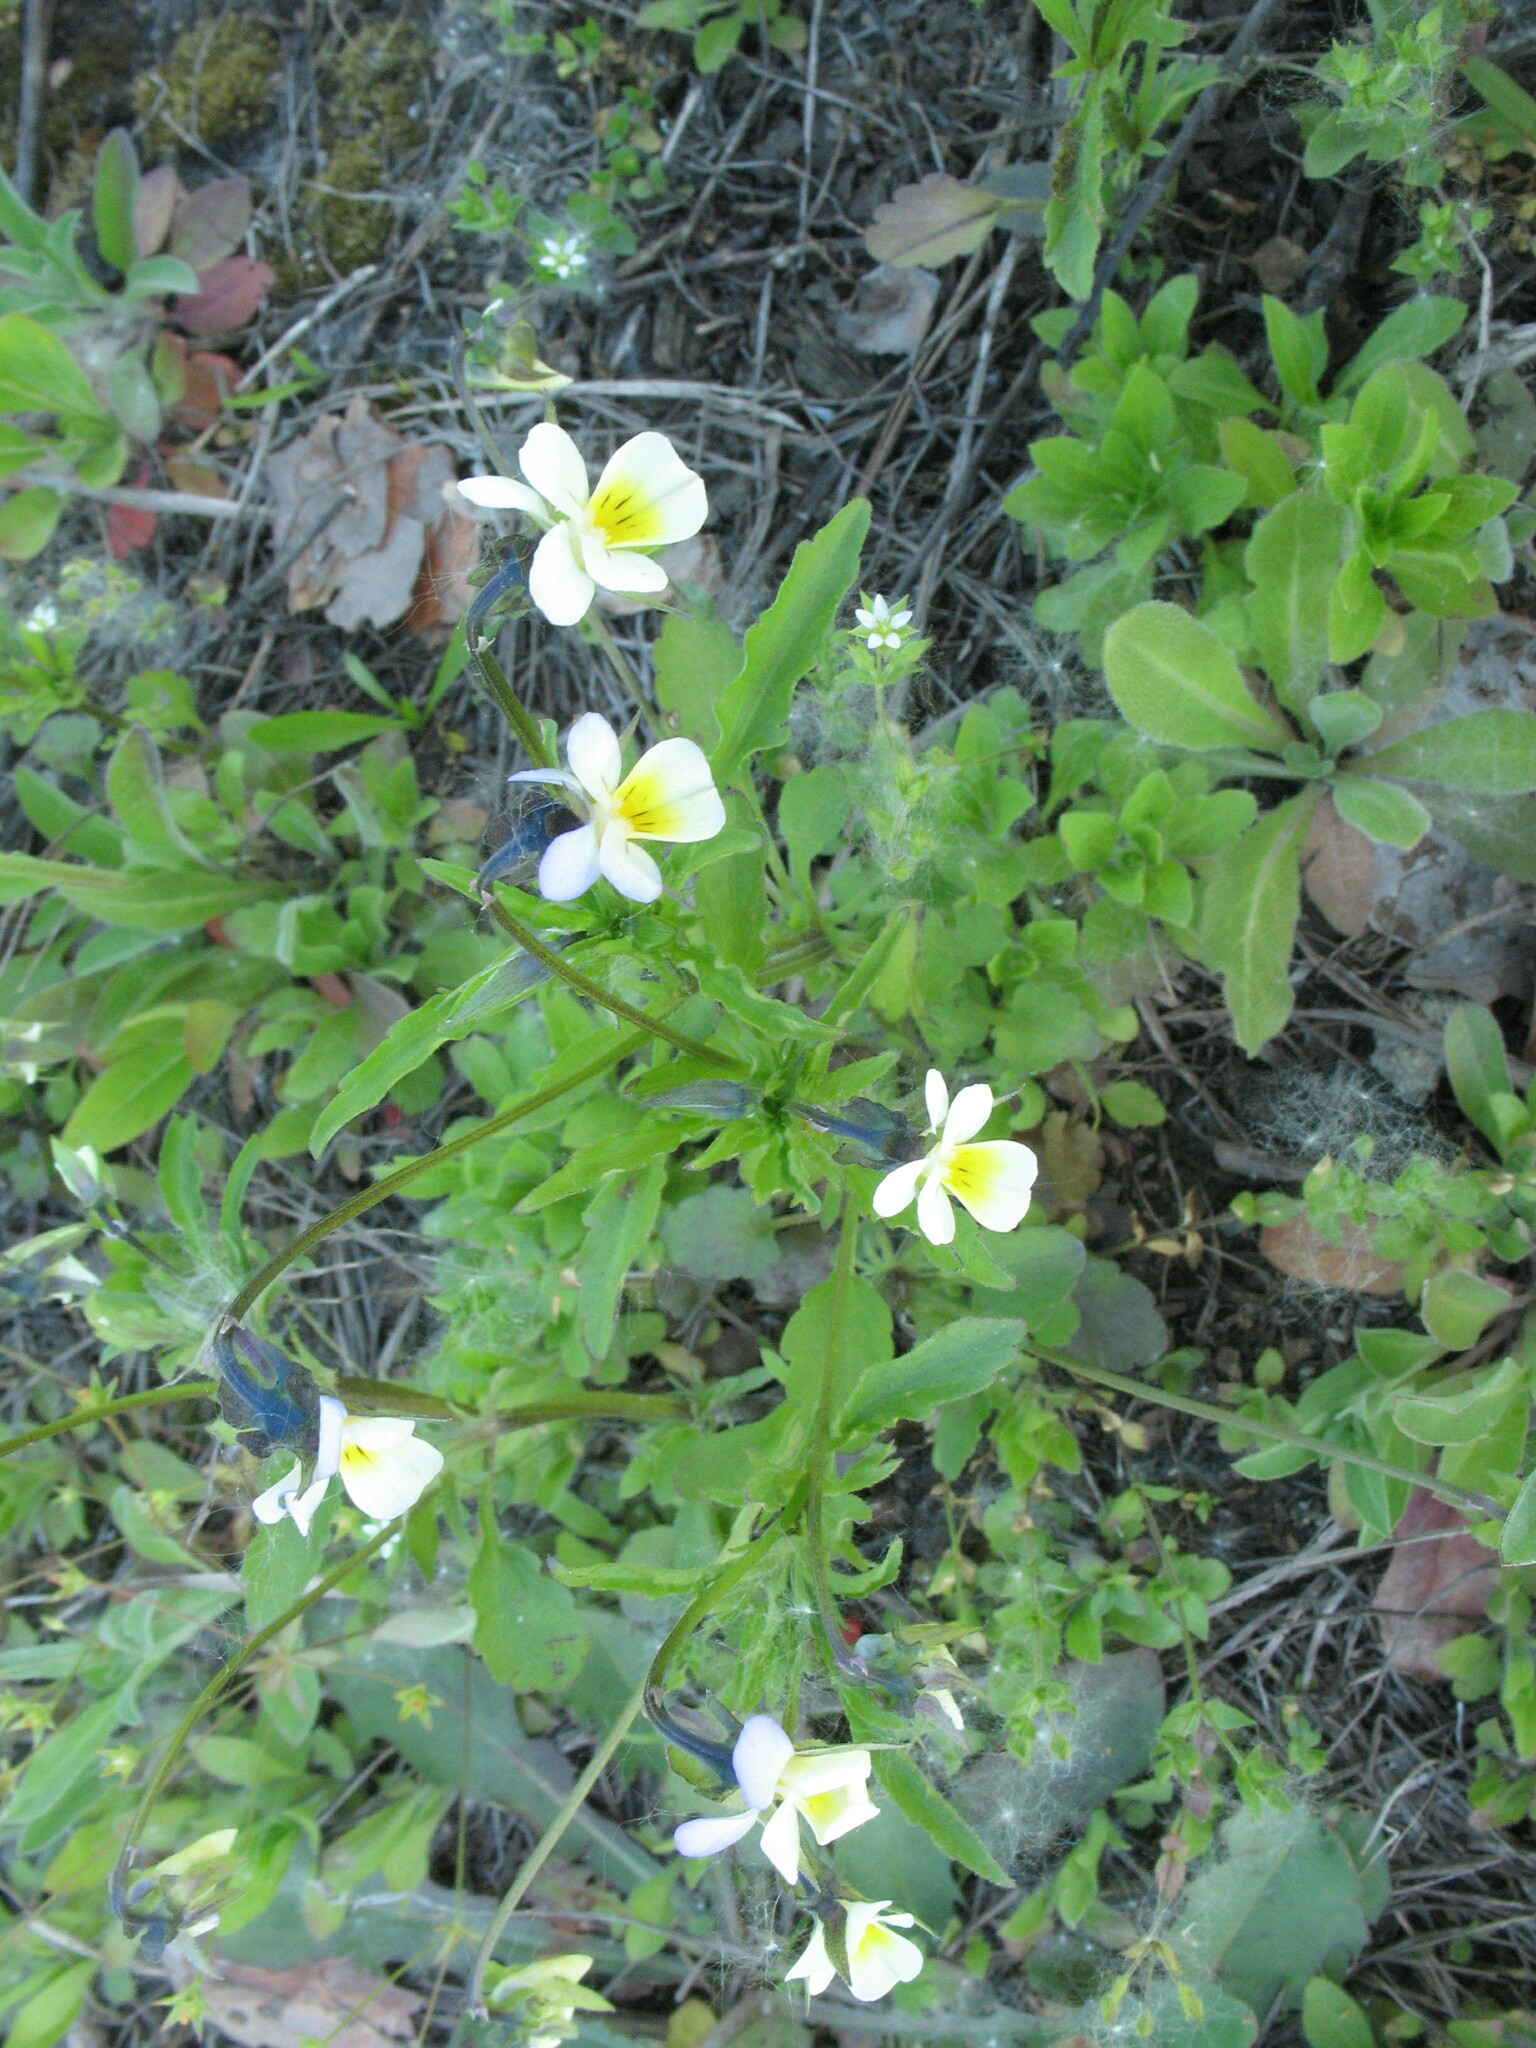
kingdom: Plantae
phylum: Tracheophyta
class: Magnoliopsida
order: Malpighiales
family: Violaceae
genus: Viola
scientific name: Viola arvensis
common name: Field pansy
